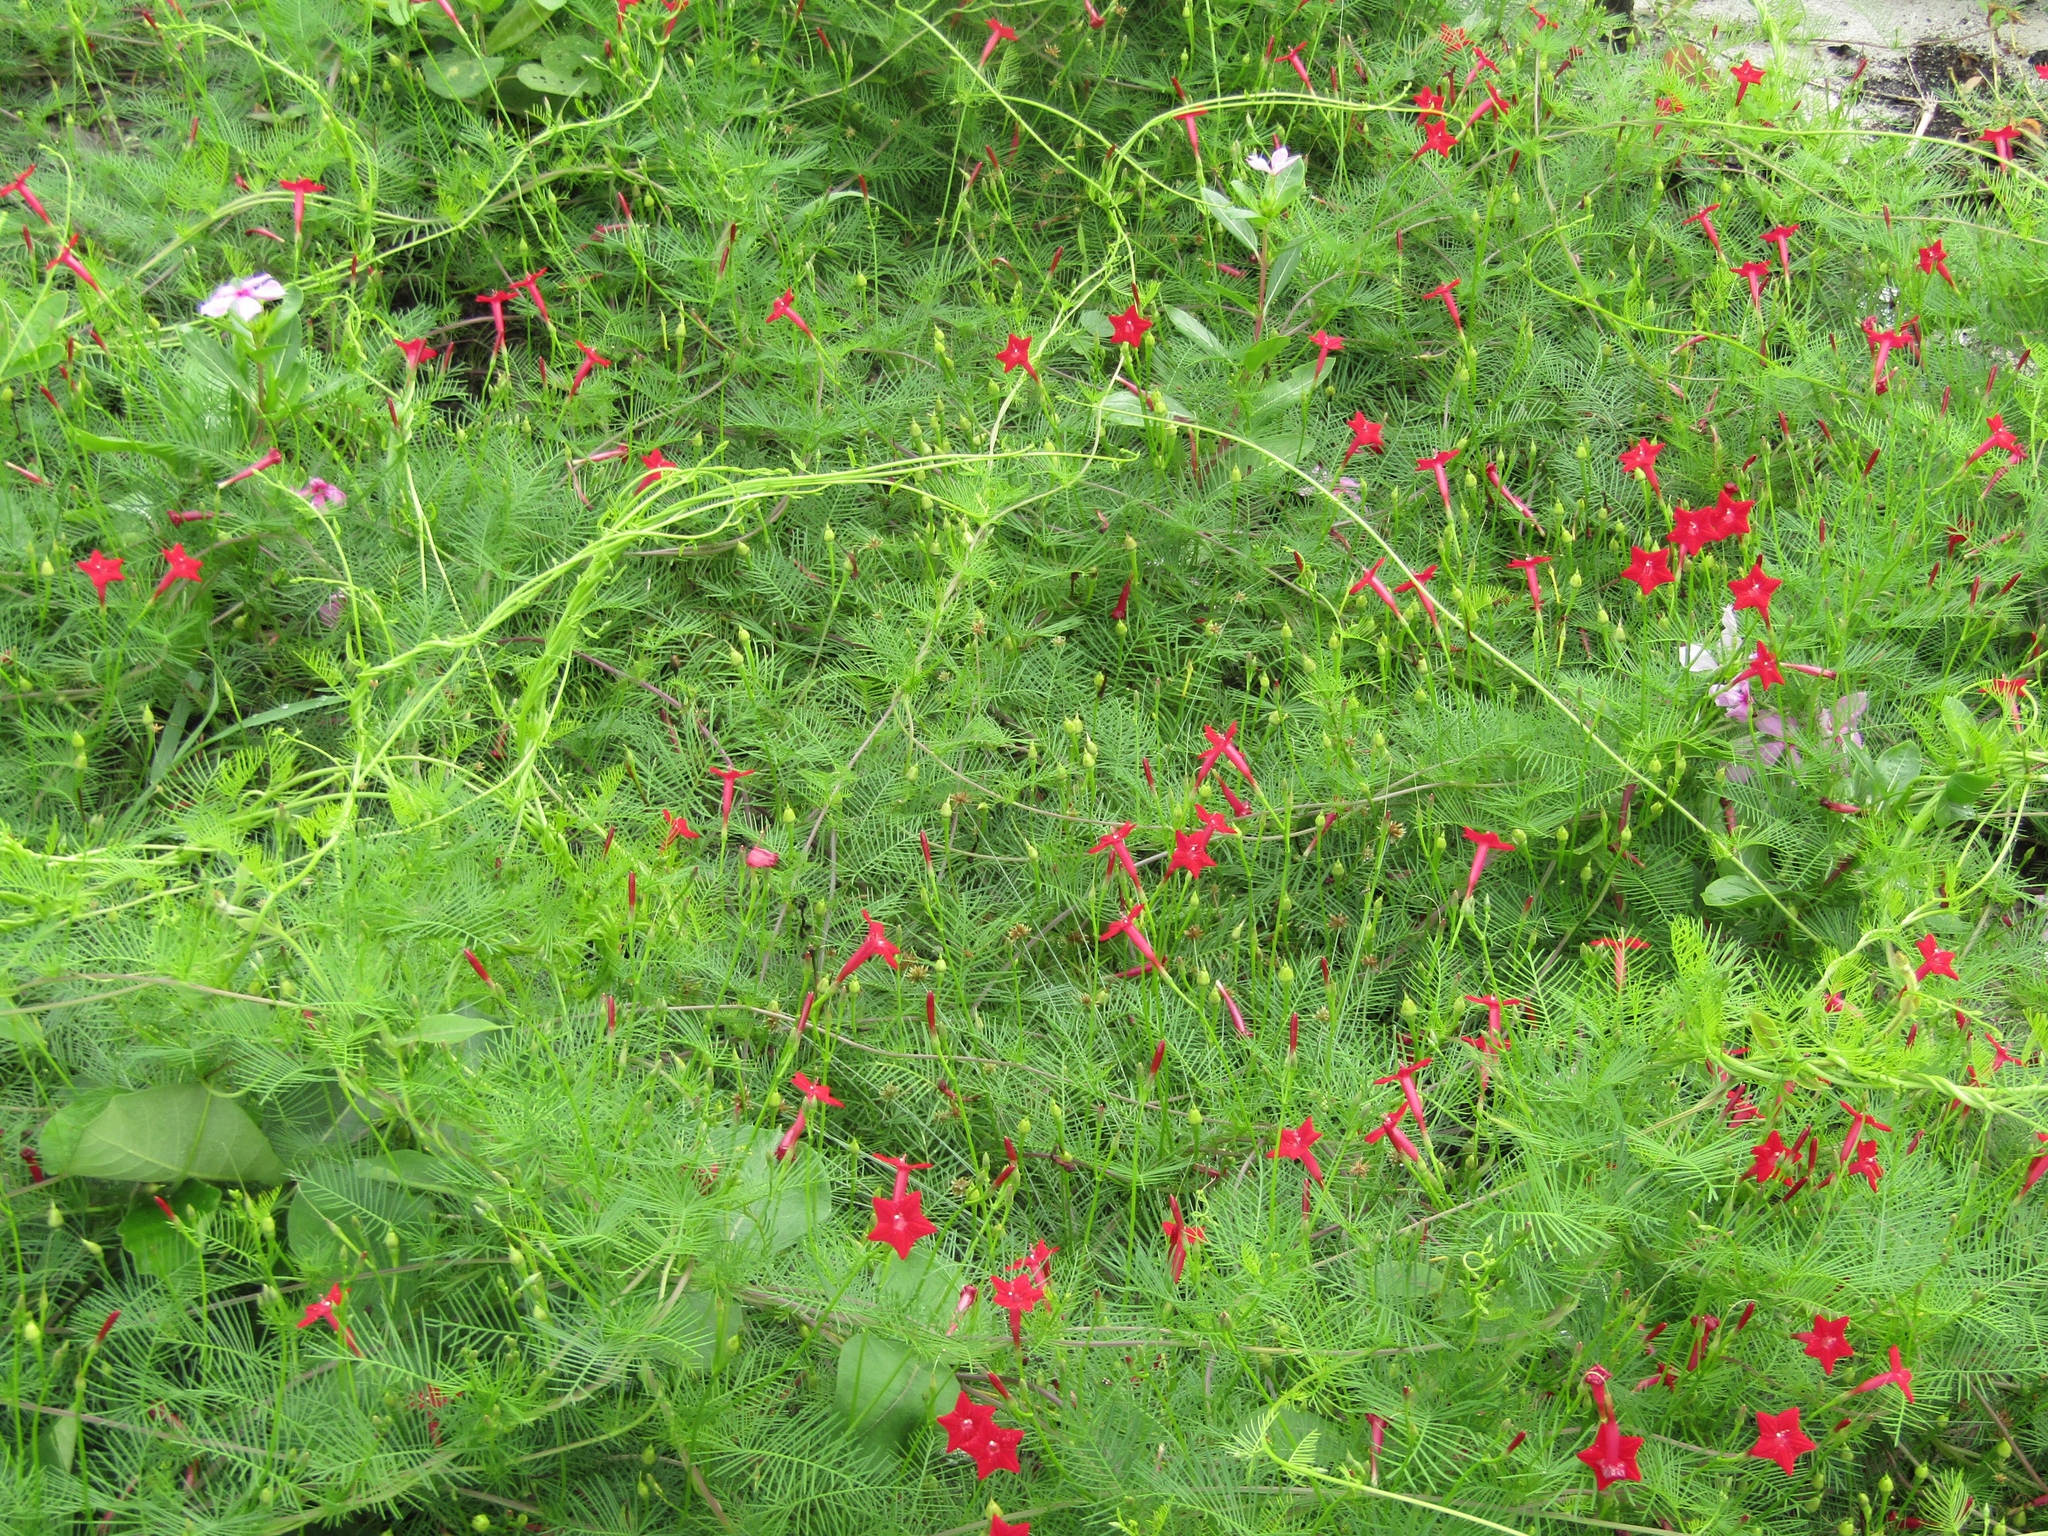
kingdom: Plantae
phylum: Tracheophyta
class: Magnoliopsida
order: Solanales
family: Convolvulaceae
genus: Ipomoea
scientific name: Ipomoea quamoclit
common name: Cypress vine
